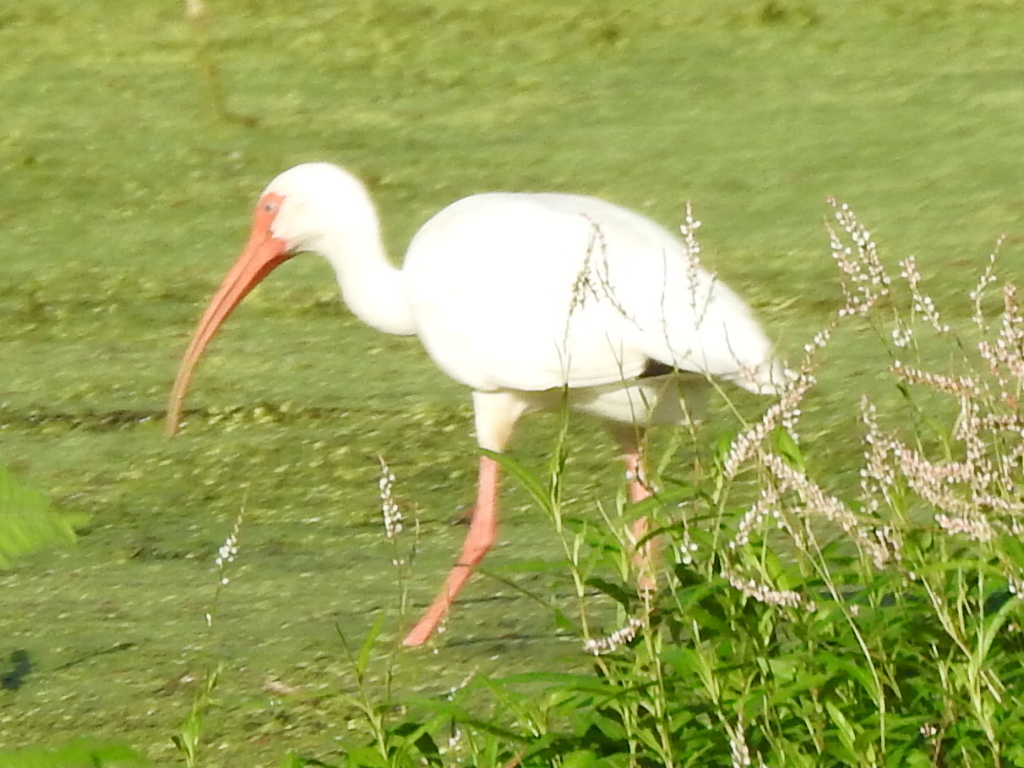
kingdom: Animalia
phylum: Chordata
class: Aves
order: Pelecaniformes
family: Threskiornithidae
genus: Eudocimus
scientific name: Eudocimus albus
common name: White ibis
